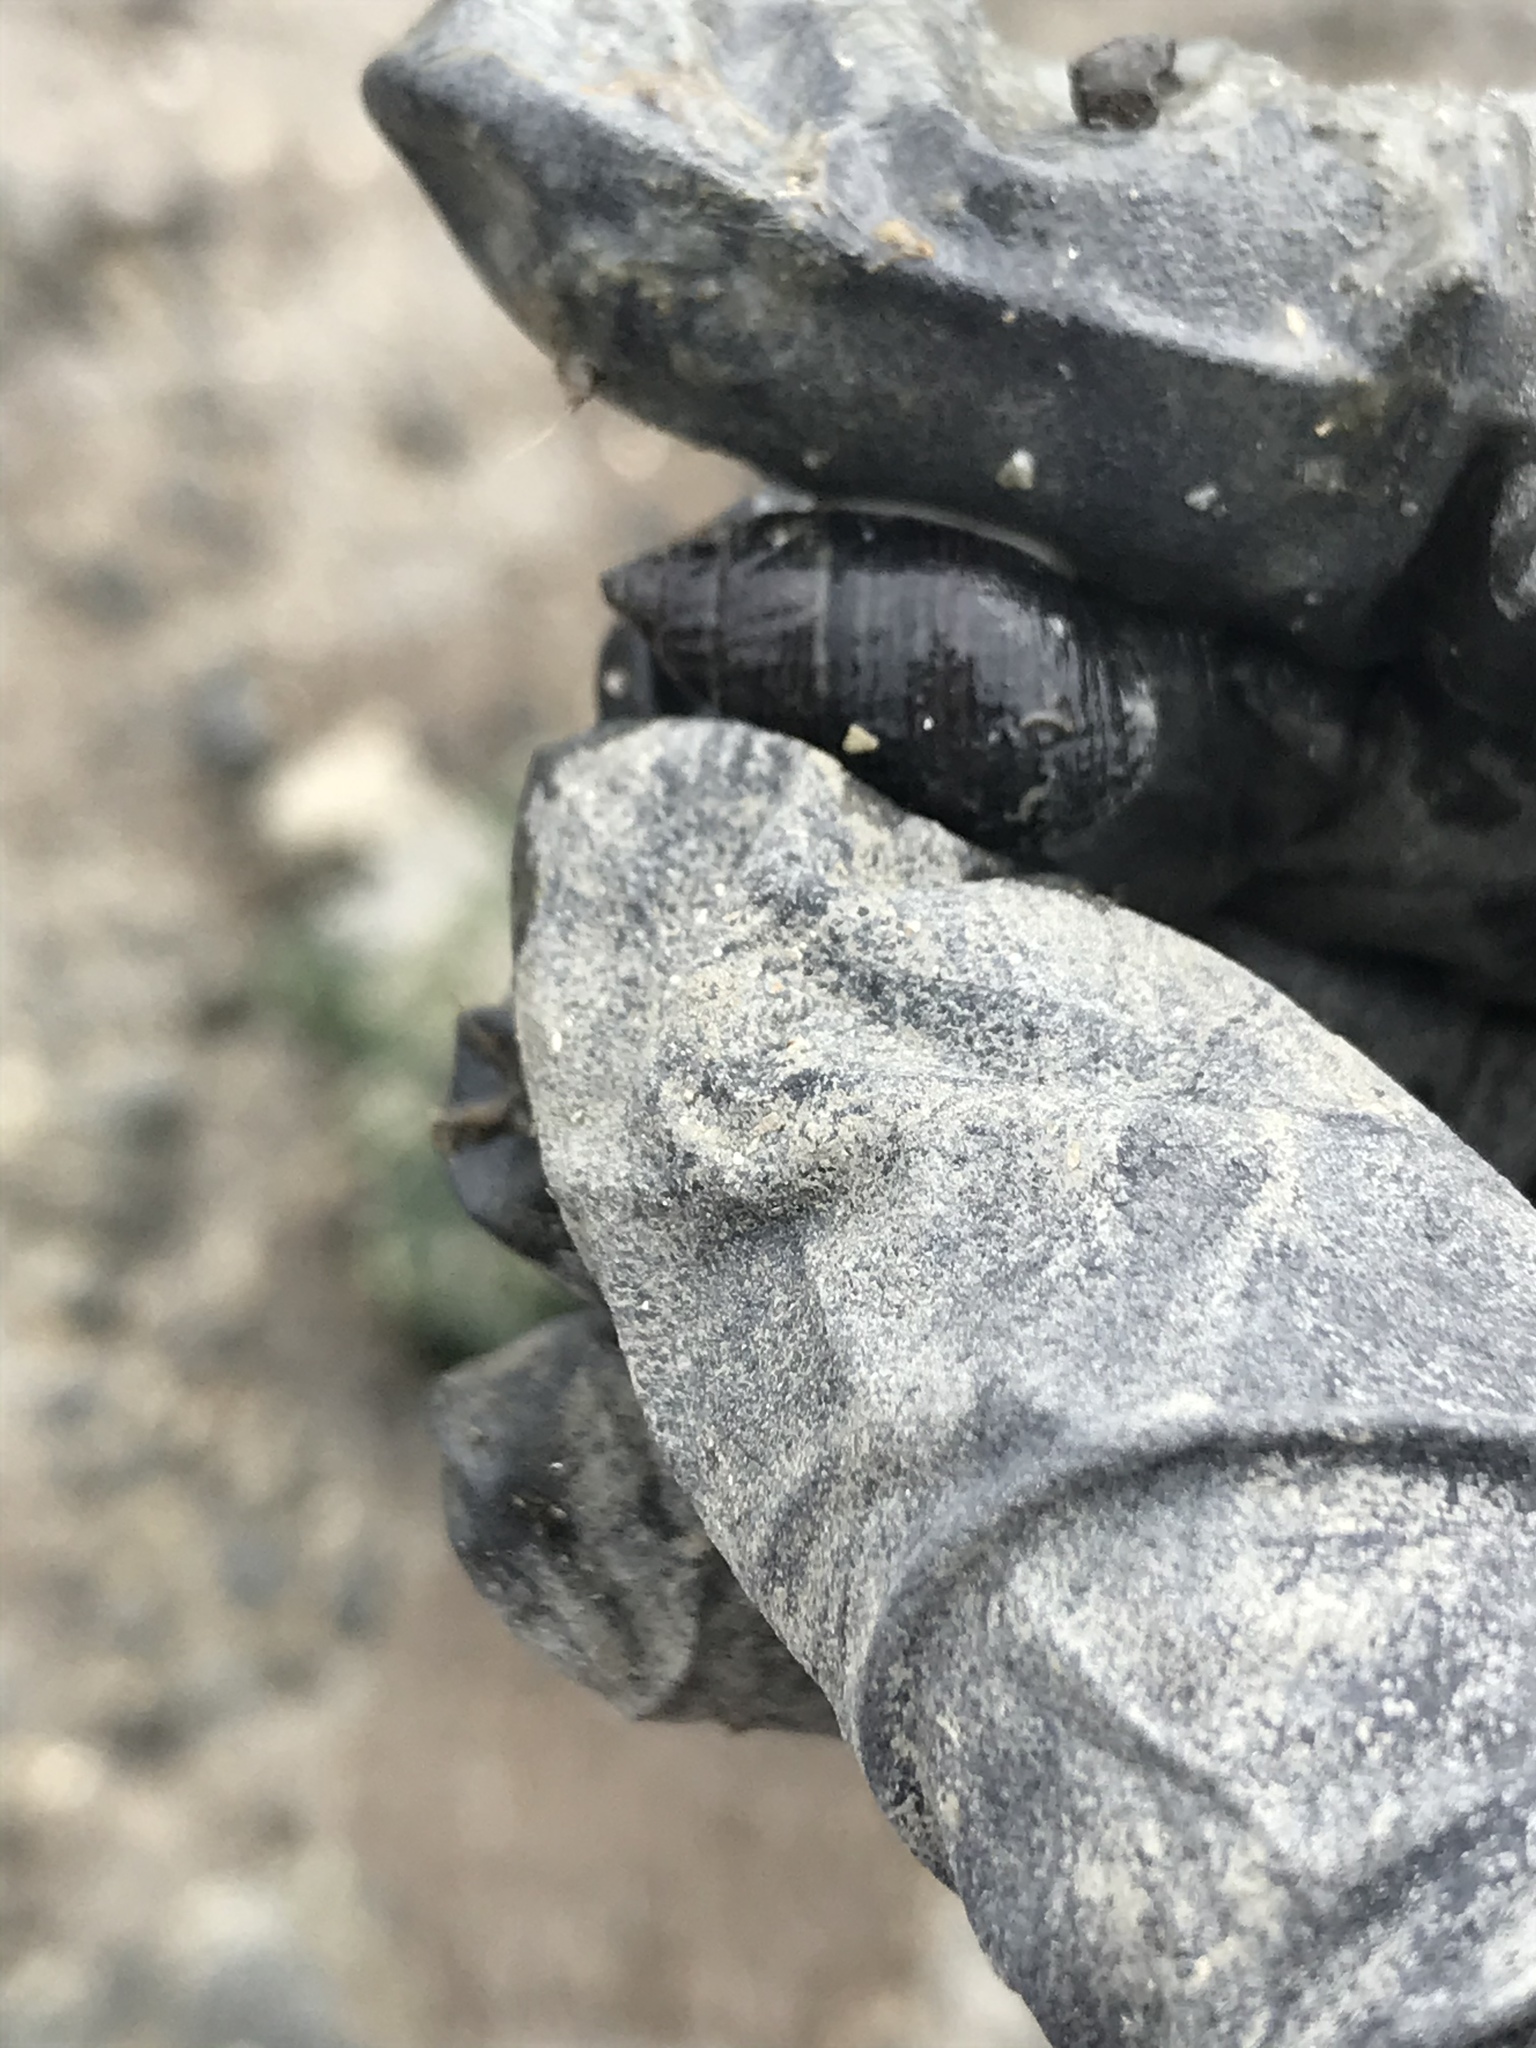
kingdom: Animalia
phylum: Mollusca
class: Gastropoda
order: Neogastropoda
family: Nassariidae
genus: Ilyanassa
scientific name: Ilyanassa obsoleta
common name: Eastern mudsnail
